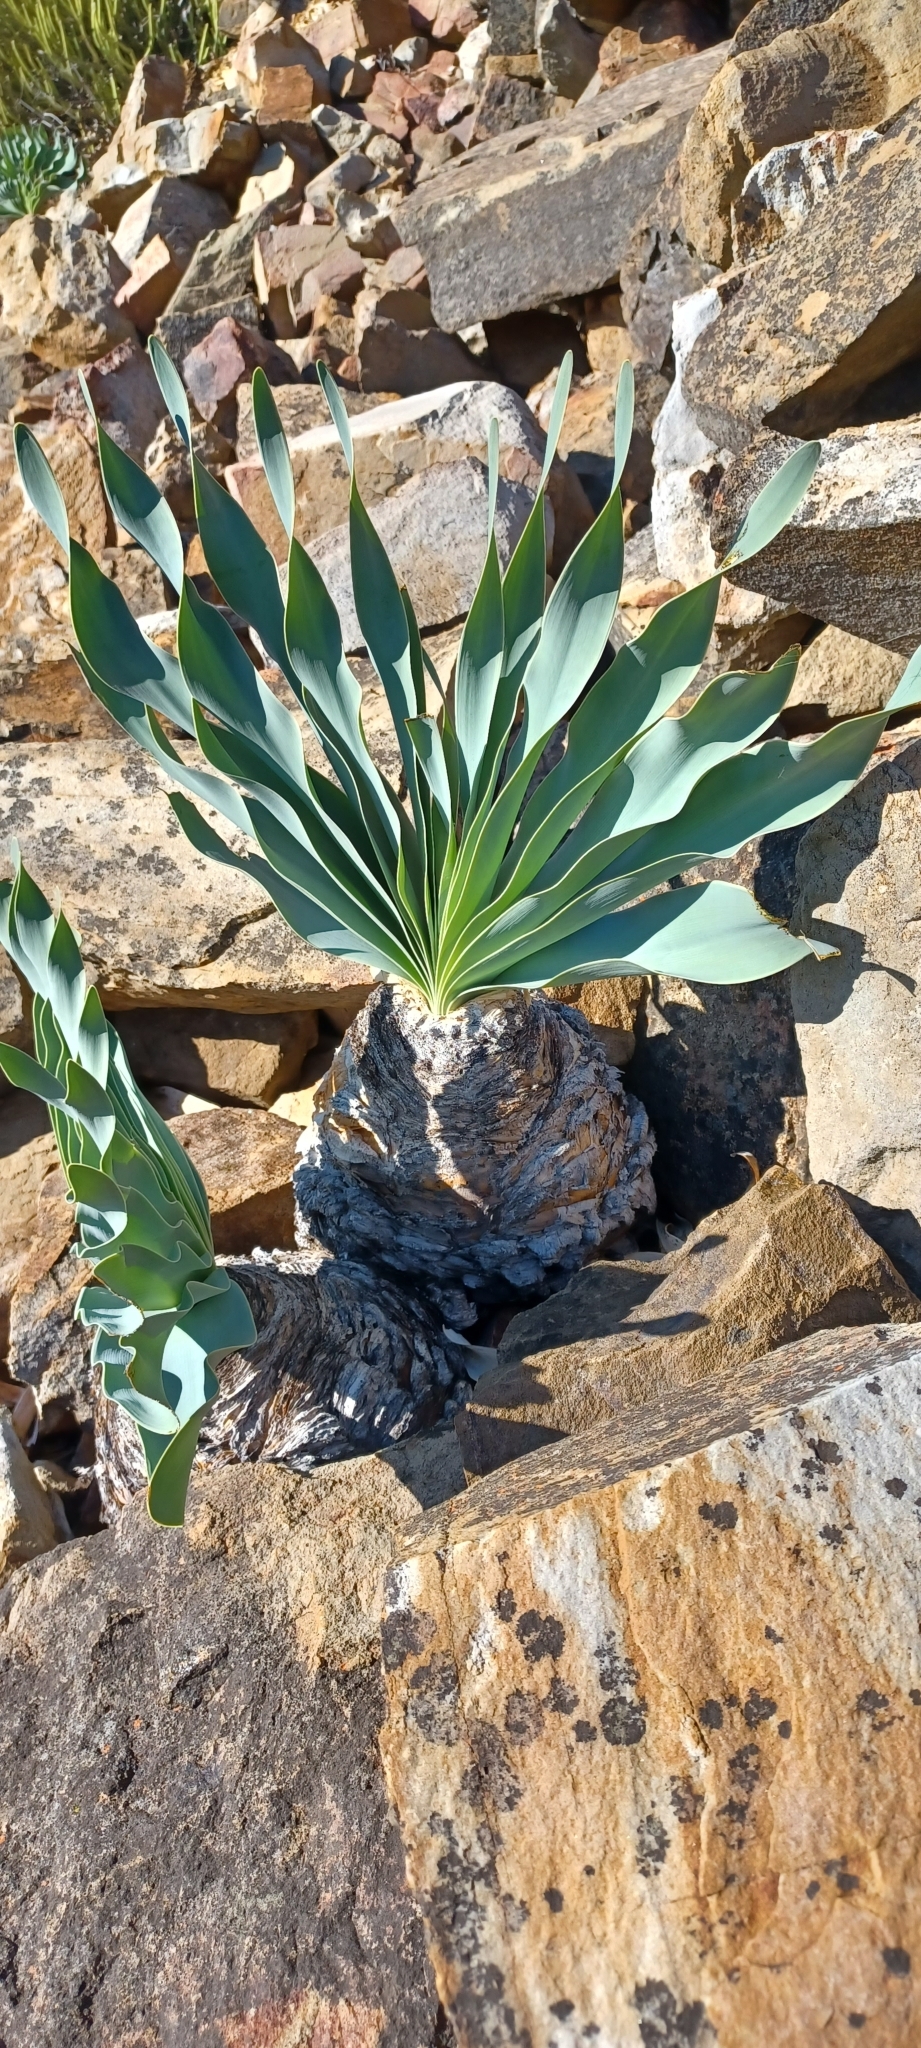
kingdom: Plantae
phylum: Tracheophyta
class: Liliopsida
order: Asparagales
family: Amaryllidaceae
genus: Boophone
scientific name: Boophone disticha
